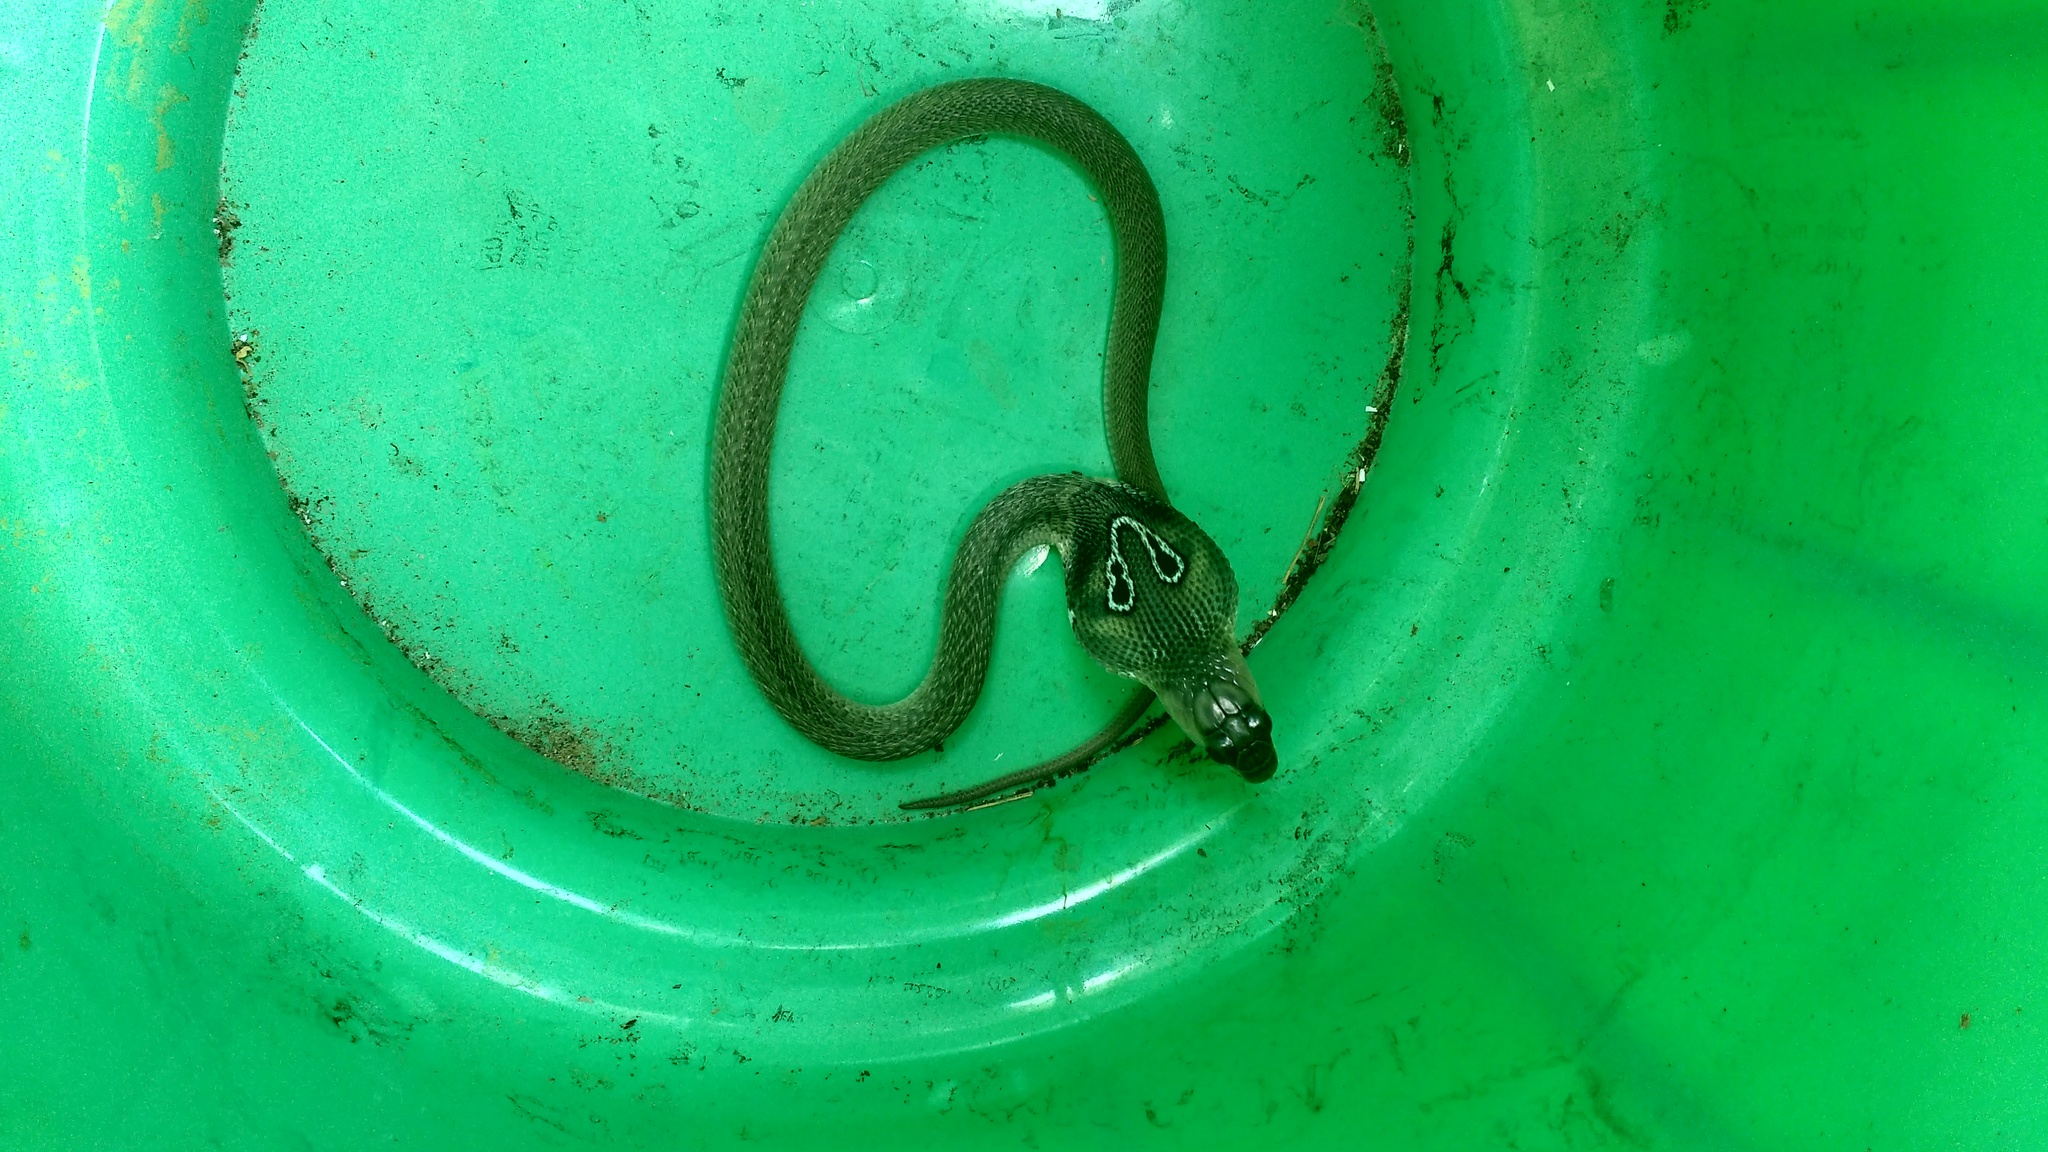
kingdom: Animalia
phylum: Chordata
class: Squamata
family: Elapidae
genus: Naja
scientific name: Naja naja
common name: Indian cobra
